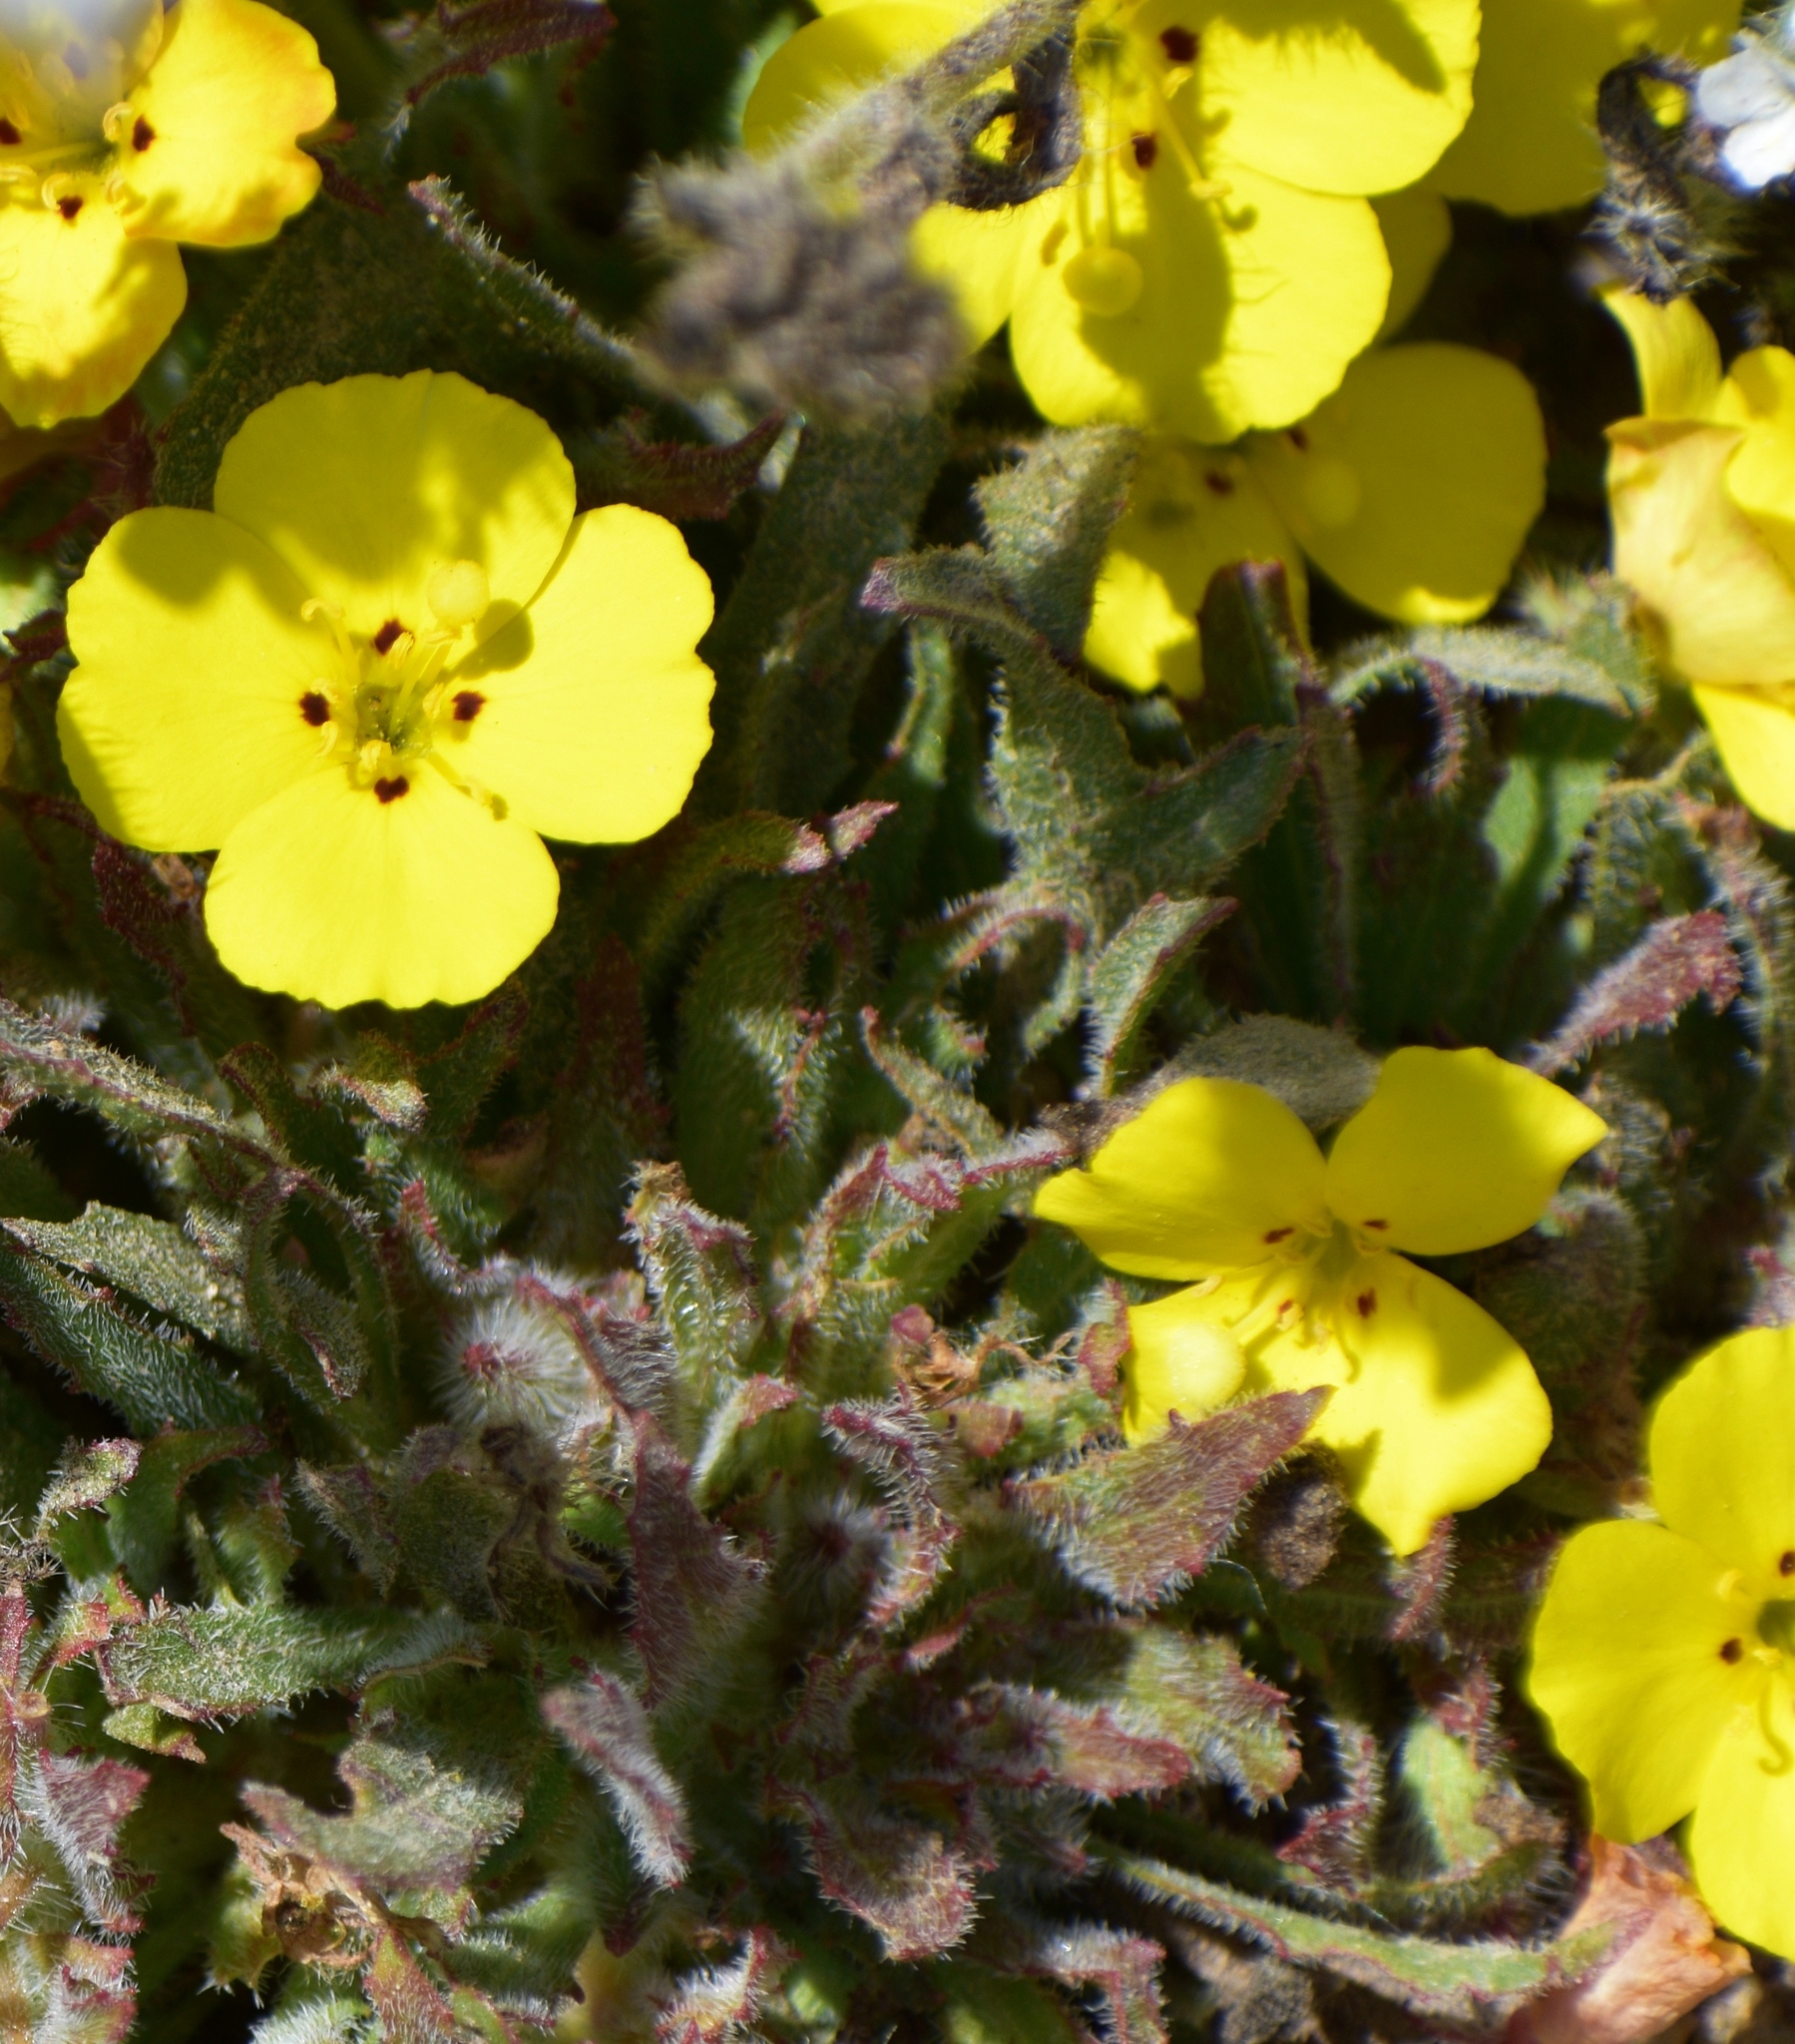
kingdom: Plantae
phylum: Tracheophyta
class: Magnoliopsida
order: Myrtales
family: Onagraceae
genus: Camissoniopsis
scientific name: Camissoniopsis bistorta
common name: Southern suncup
